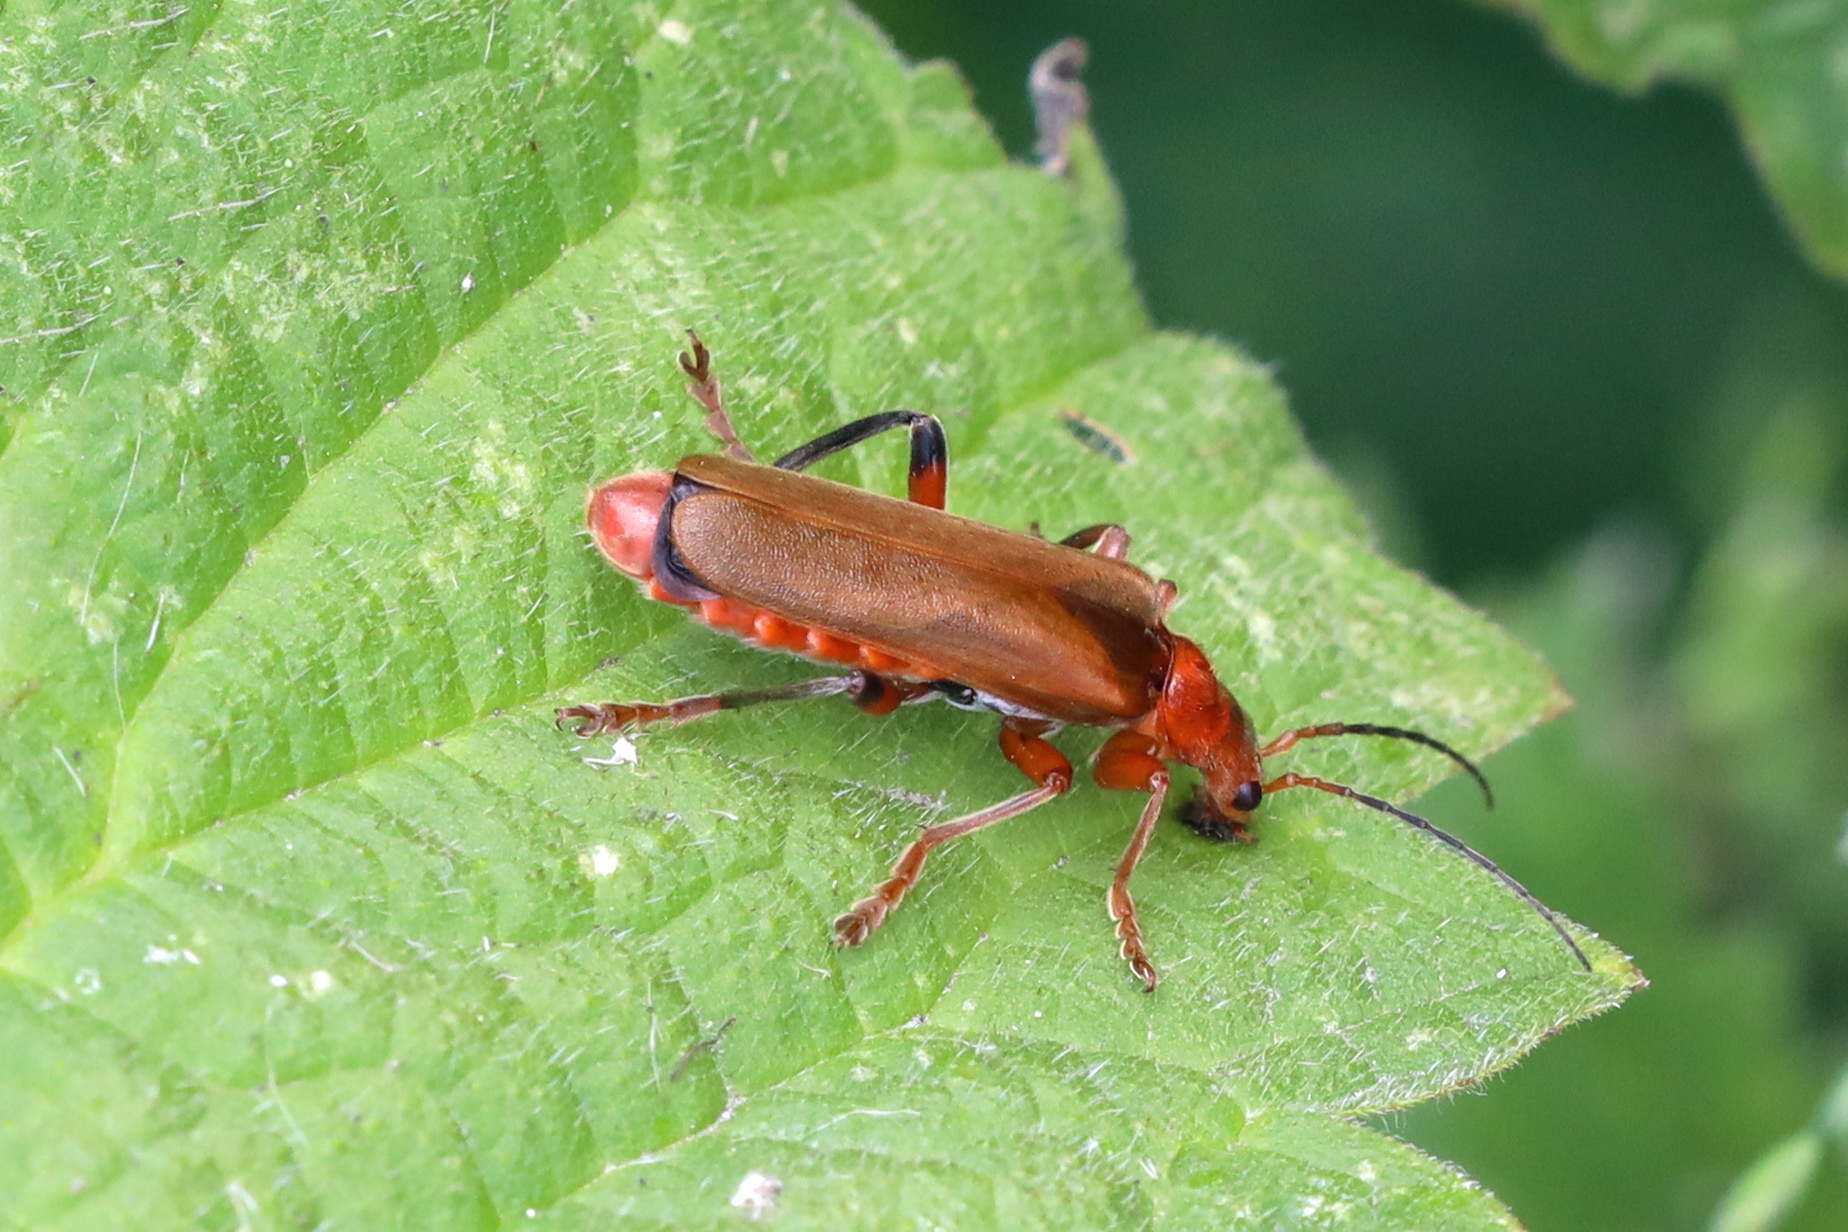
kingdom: Animalia
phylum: Arthropoda
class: Insecta
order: Coleoptera
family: Cantharidae
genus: Cantharis
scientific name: Cantharis livida
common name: Livid soldier beetle
